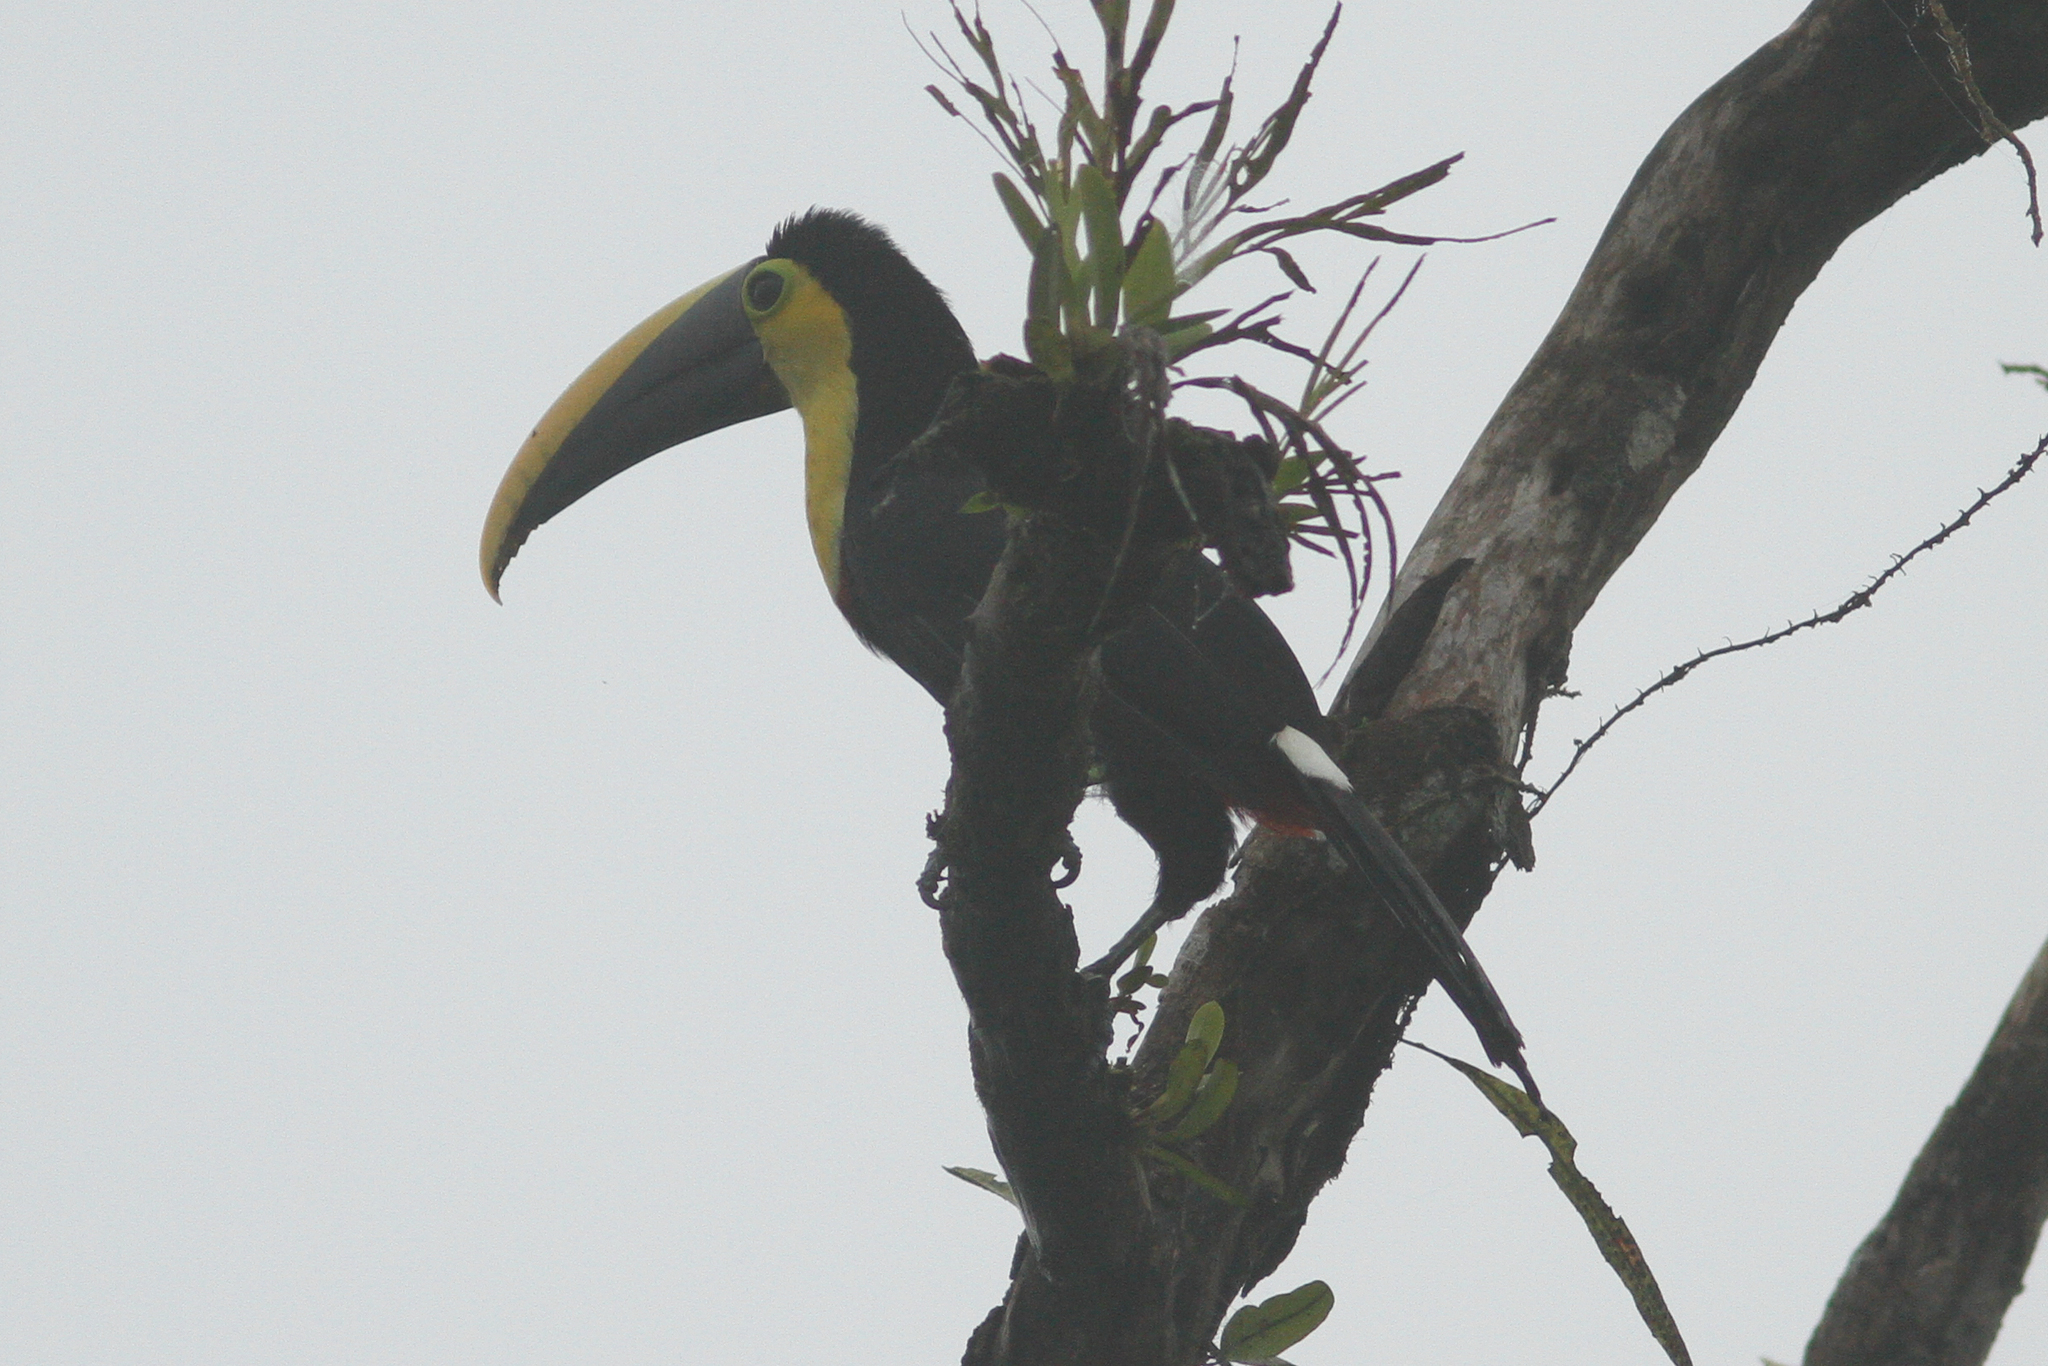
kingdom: Animalia
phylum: Chordata
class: Aves
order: Piciformes
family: Ramphastidae
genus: Ramphastos
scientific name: Ramphastos brevis
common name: Choco toucan
